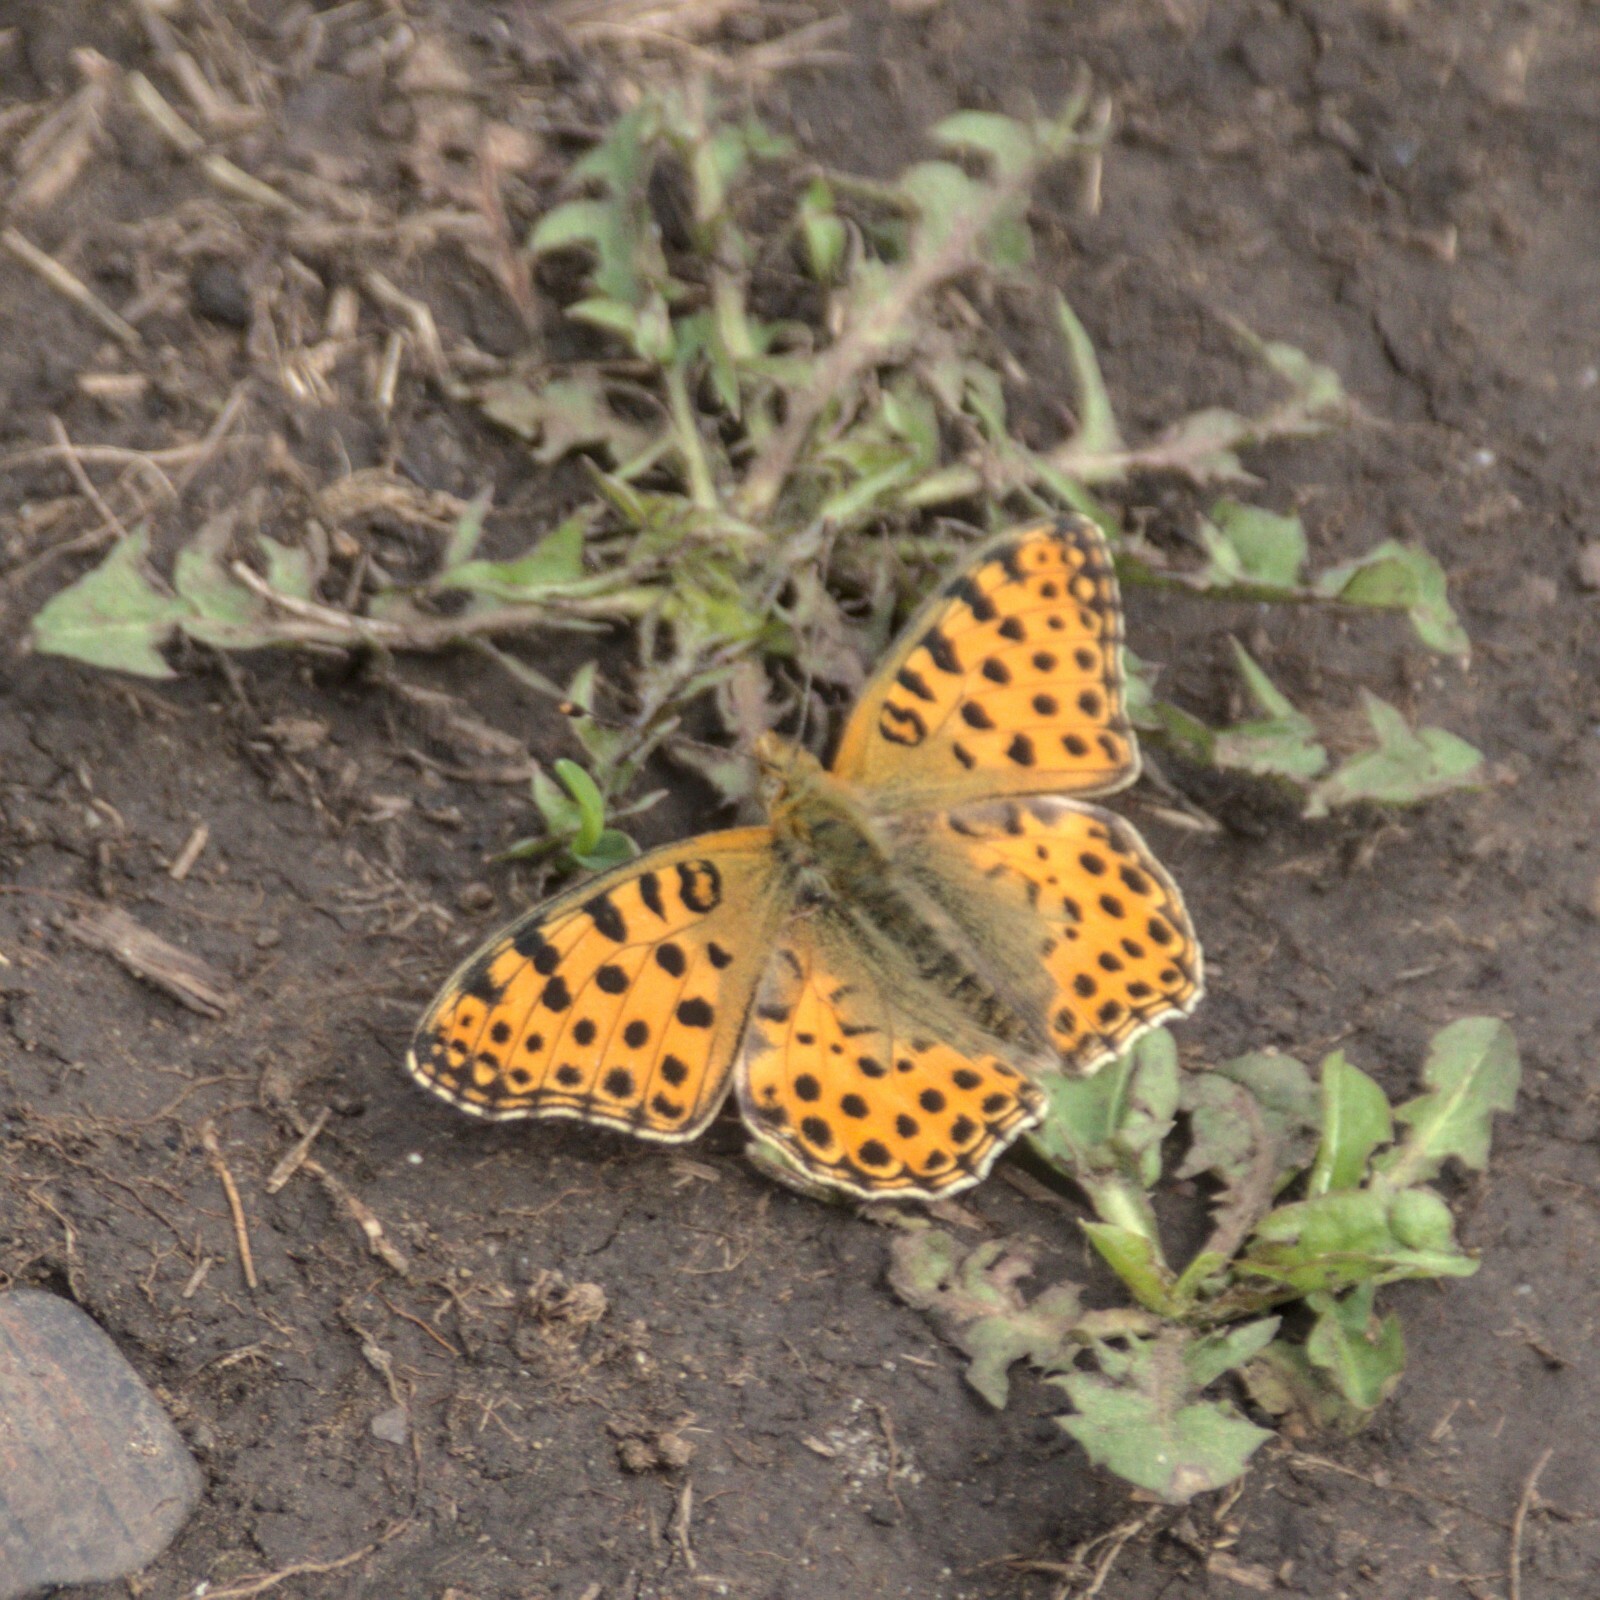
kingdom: Animalia
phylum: Arthropoda
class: Insecta
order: Lepidoptera
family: Nymphalidae
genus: Issoria
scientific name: Issoria lathonia
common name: Queen of spain fritillary
